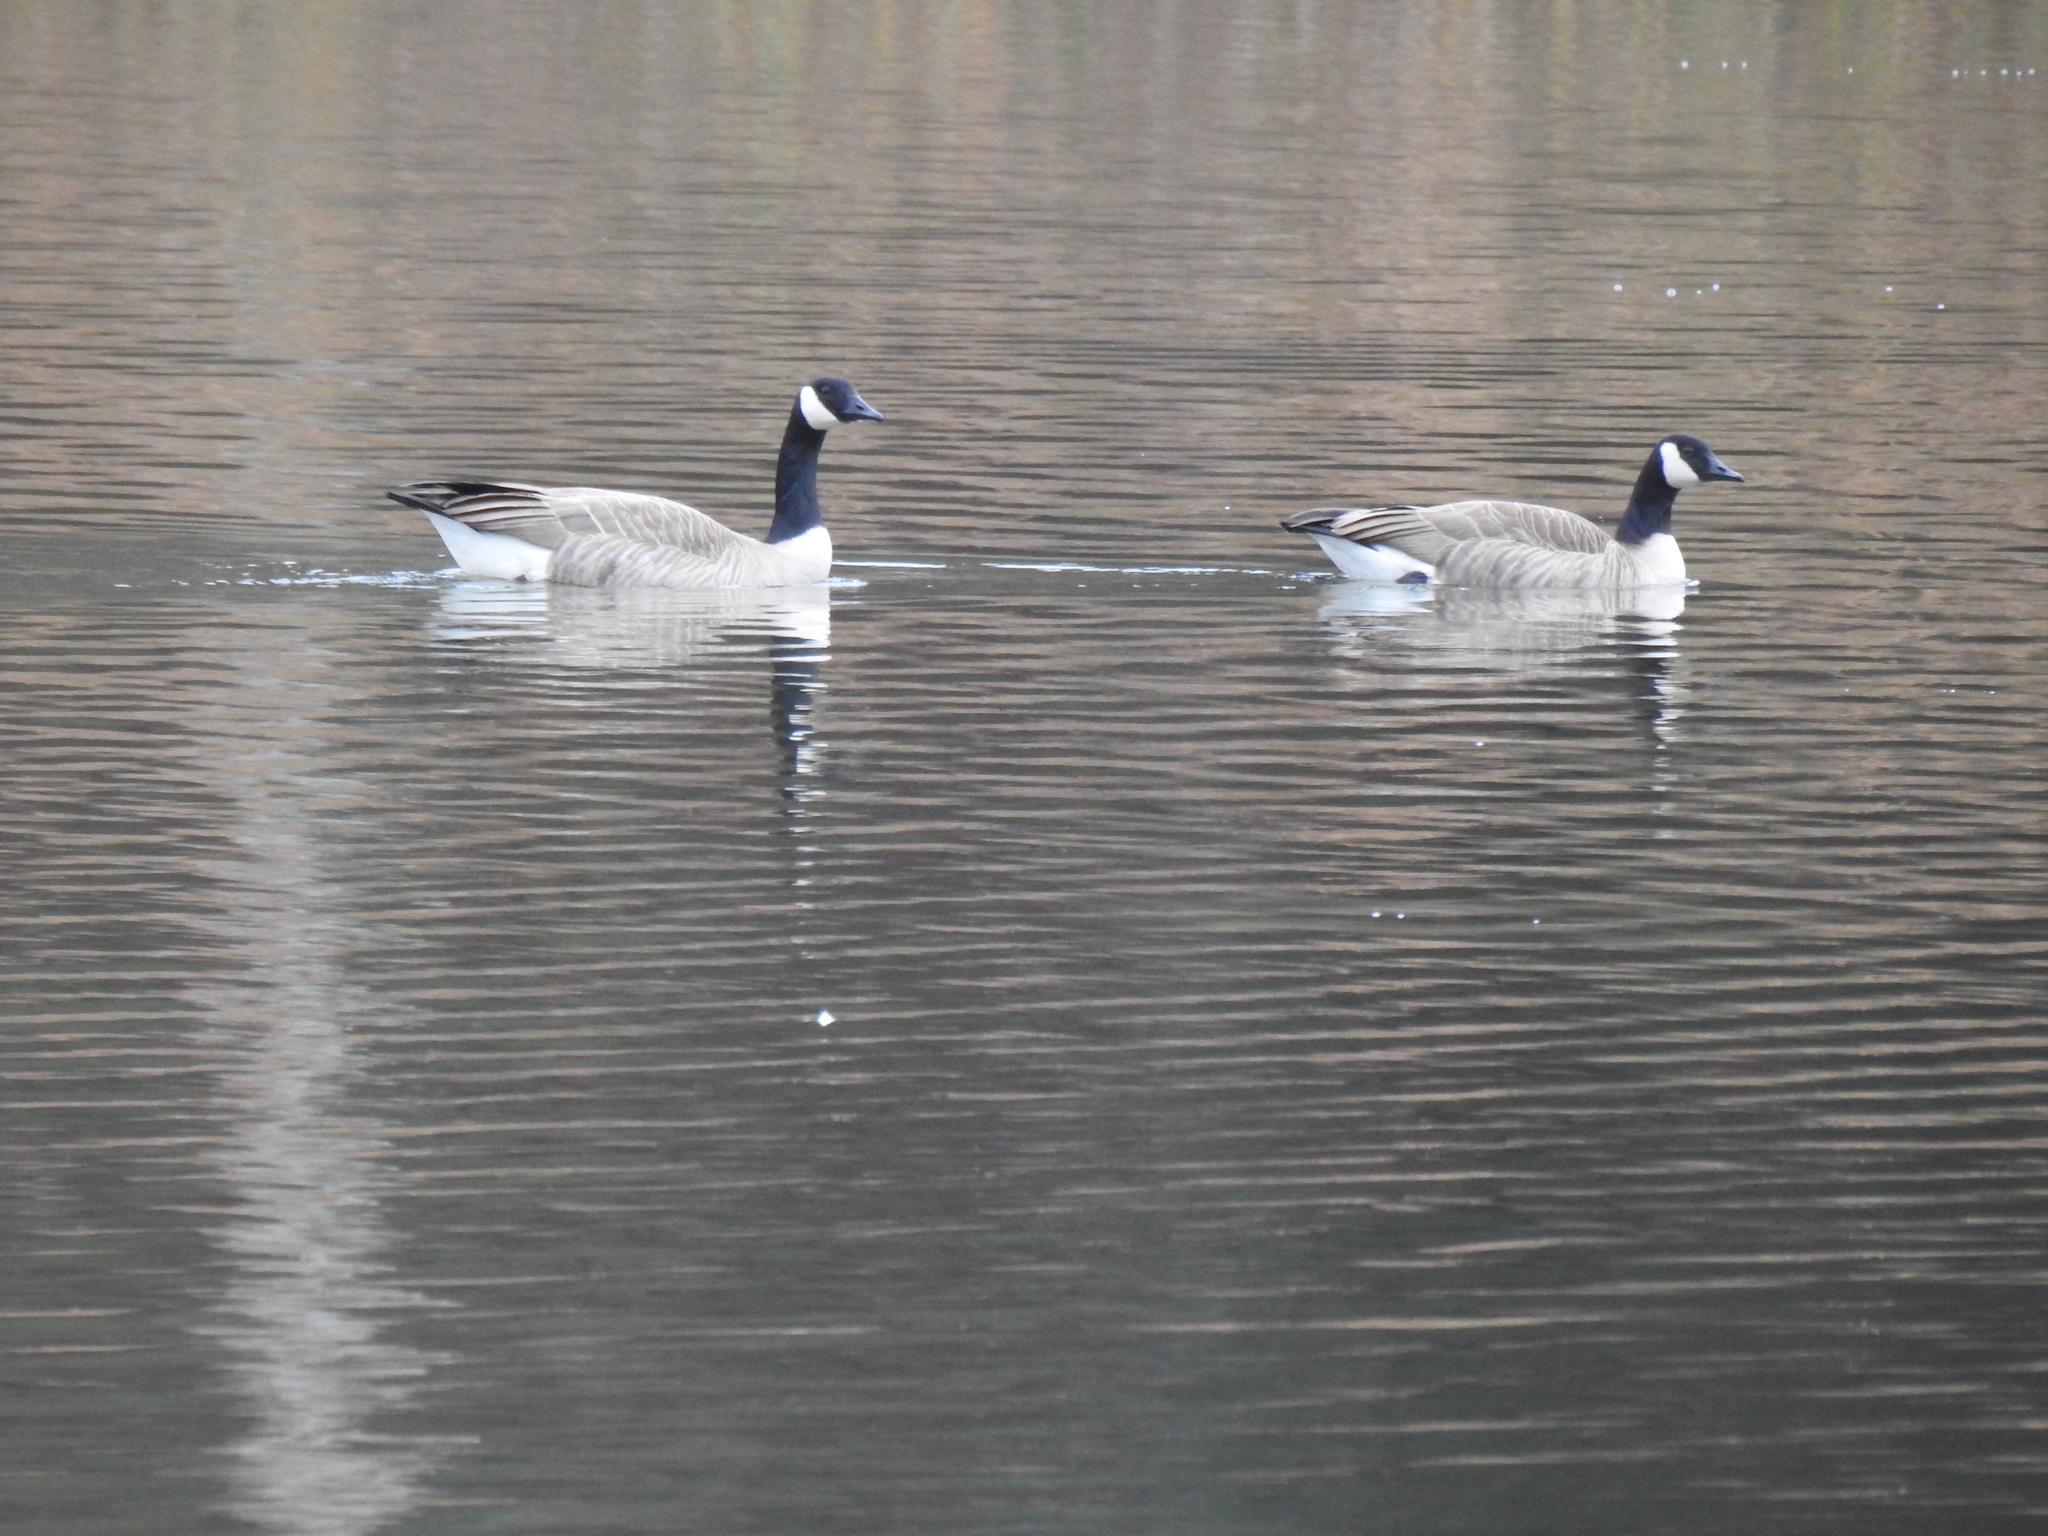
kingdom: Animalia
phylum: Chordata
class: Aves
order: Anseriformes
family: Anatidae
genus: Branta
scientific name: Branta canadensis
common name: Canada goose
